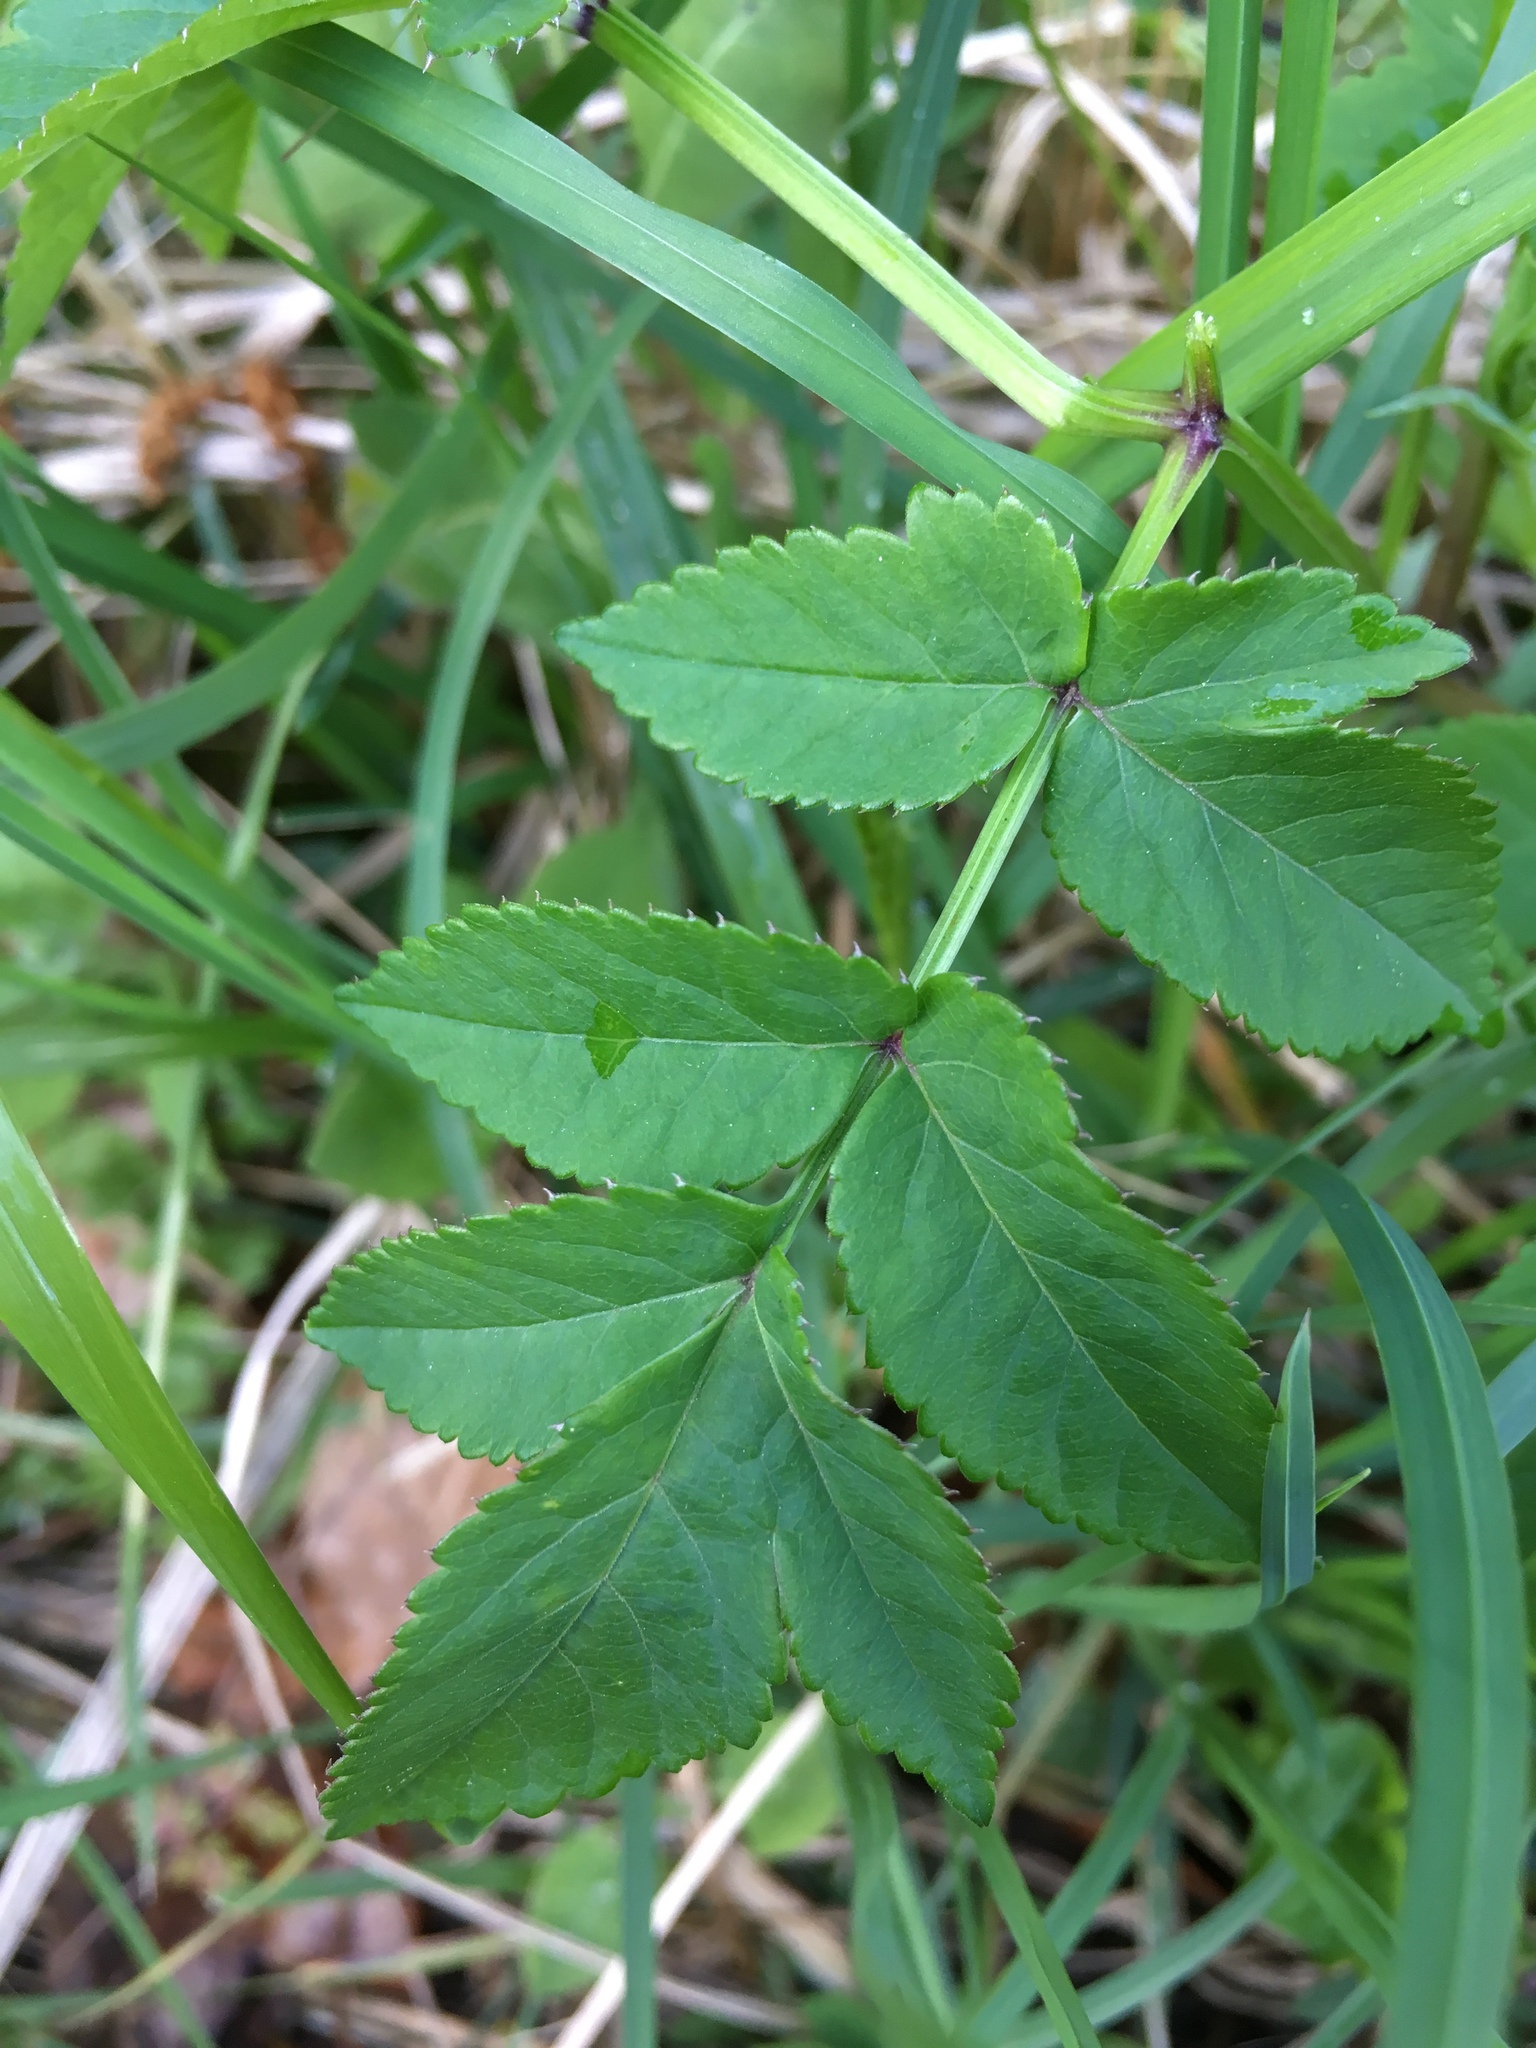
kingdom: Plantae
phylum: Tracheophyta
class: Magnoliopsida
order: Apiales
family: Apiaceae
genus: Angelica
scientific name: Angelica sylvestris
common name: Wild angelica
